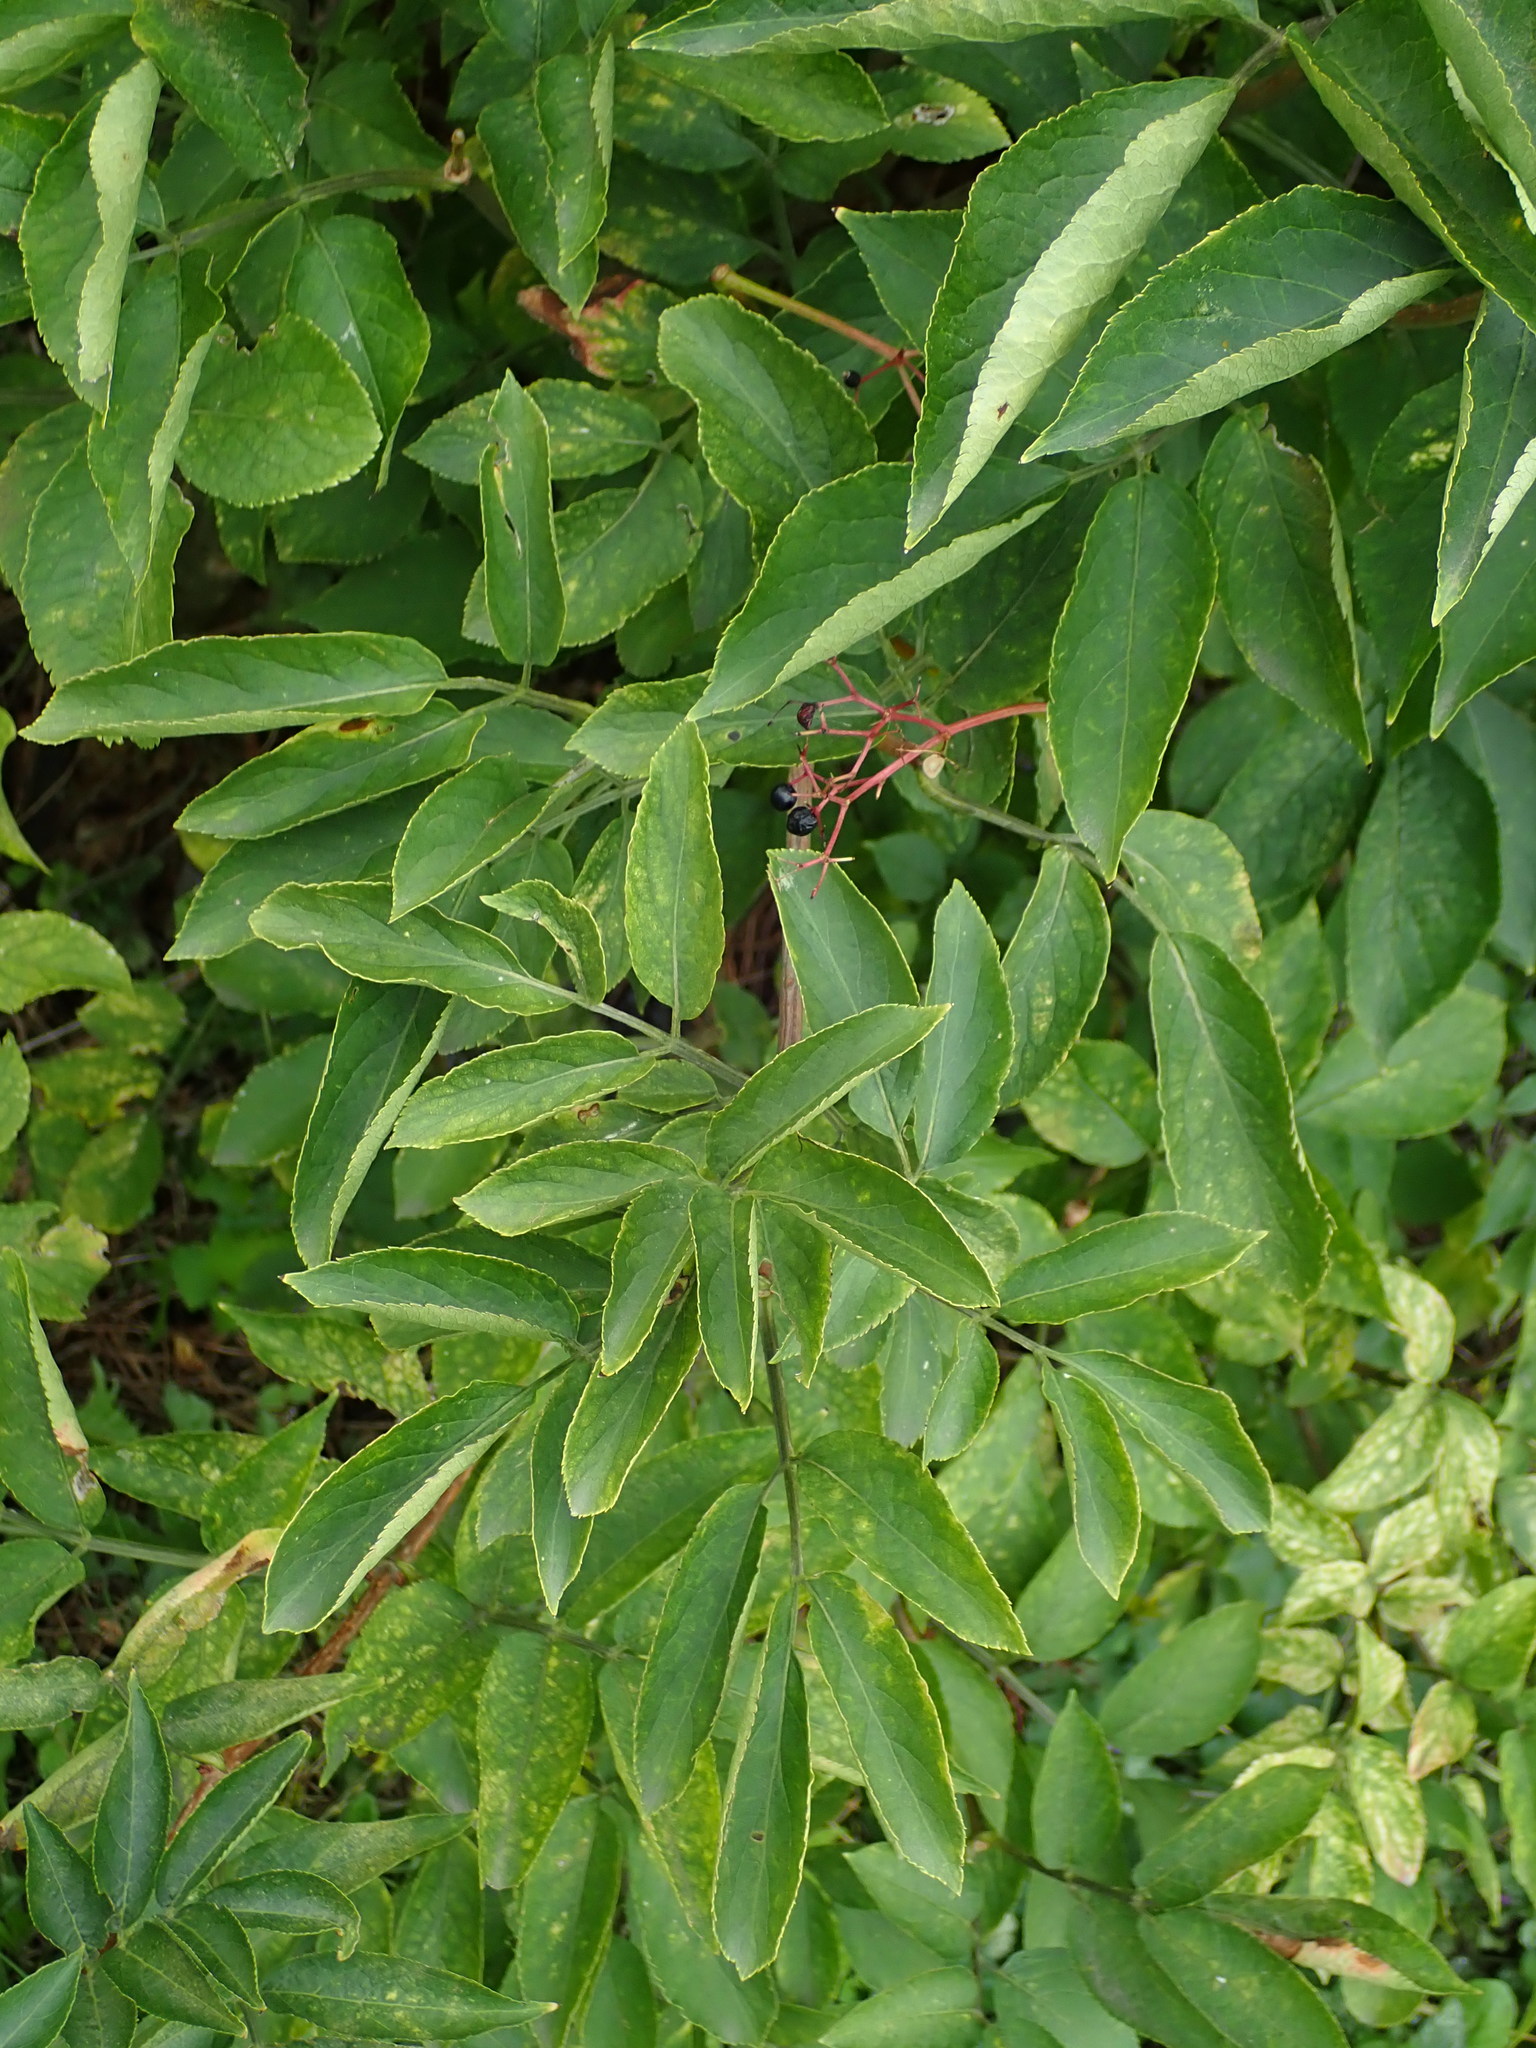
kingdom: Plantae
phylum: Tracheophyta
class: Magnoliopsida
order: Dipsacales
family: Viburnaceae
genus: Sambucus
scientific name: Sambucus ebulus
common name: Dwarf elder
